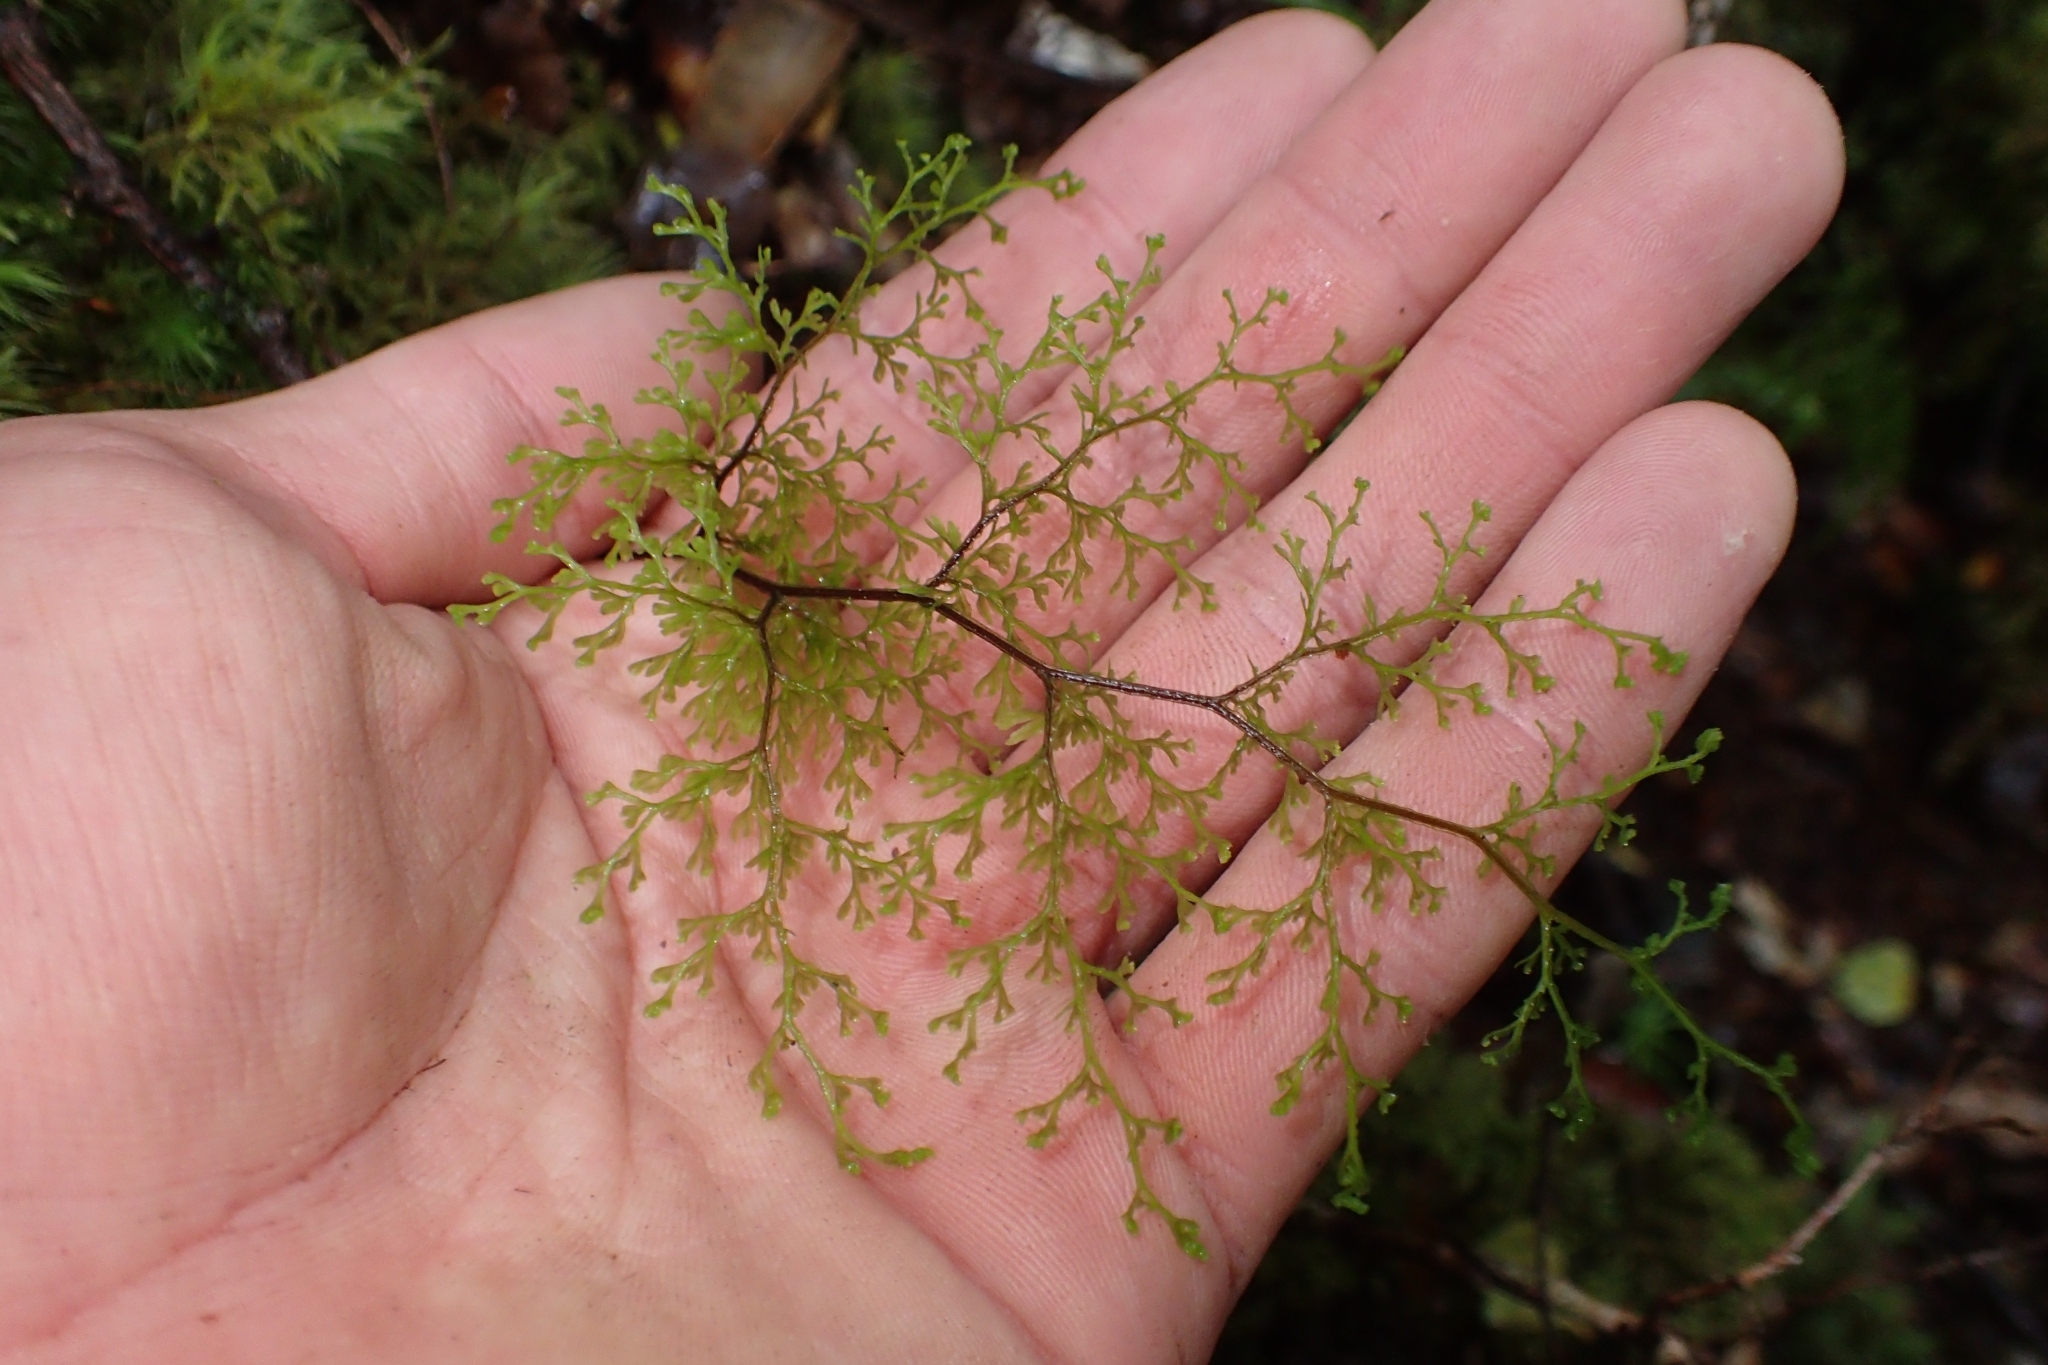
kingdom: Plantae
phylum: Tracheophyta
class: Polypodiopsida
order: Hymenophyllales
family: Hymenophyllaceae
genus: Hymenophyllum
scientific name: Hymenophyllum bivalve
